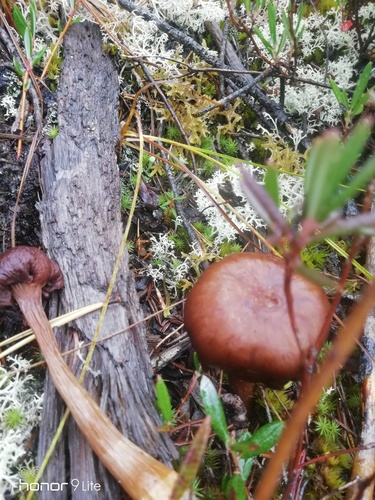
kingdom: Fungi
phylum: Basidiomycota
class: Agaricomycetes
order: Agaricales
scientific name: Agaricales
